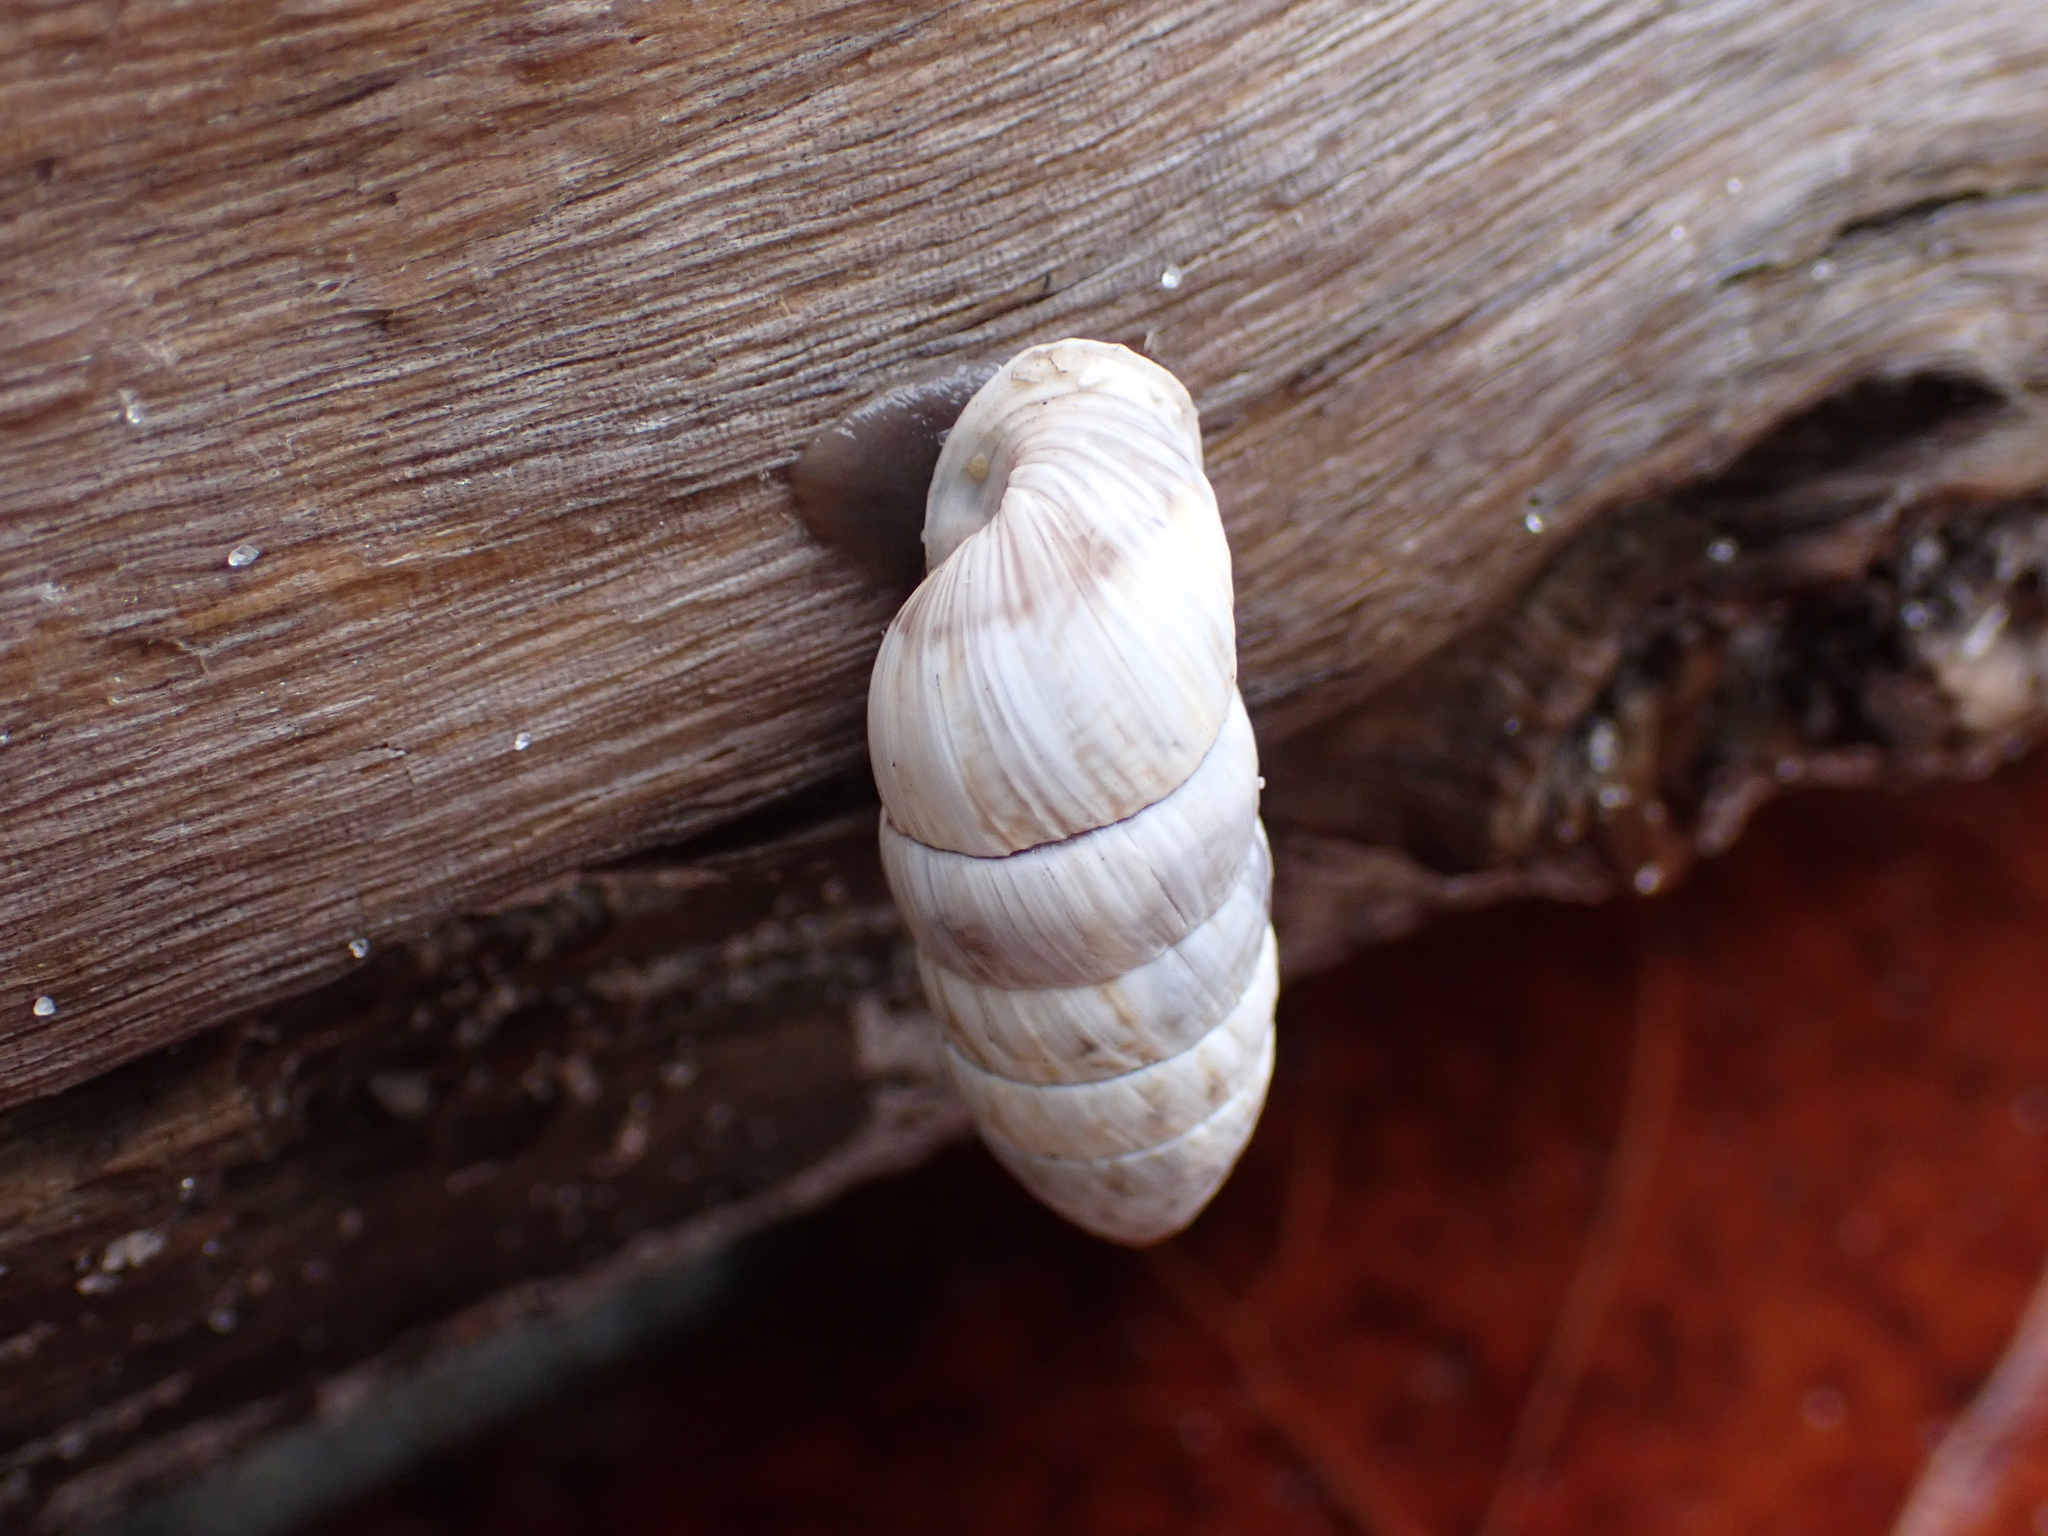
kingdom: Animalia
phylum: Mollusca
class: Gastropoda
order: Stylommatophora
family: Cerionidae
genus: Cerion
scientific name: Cerion incanum
